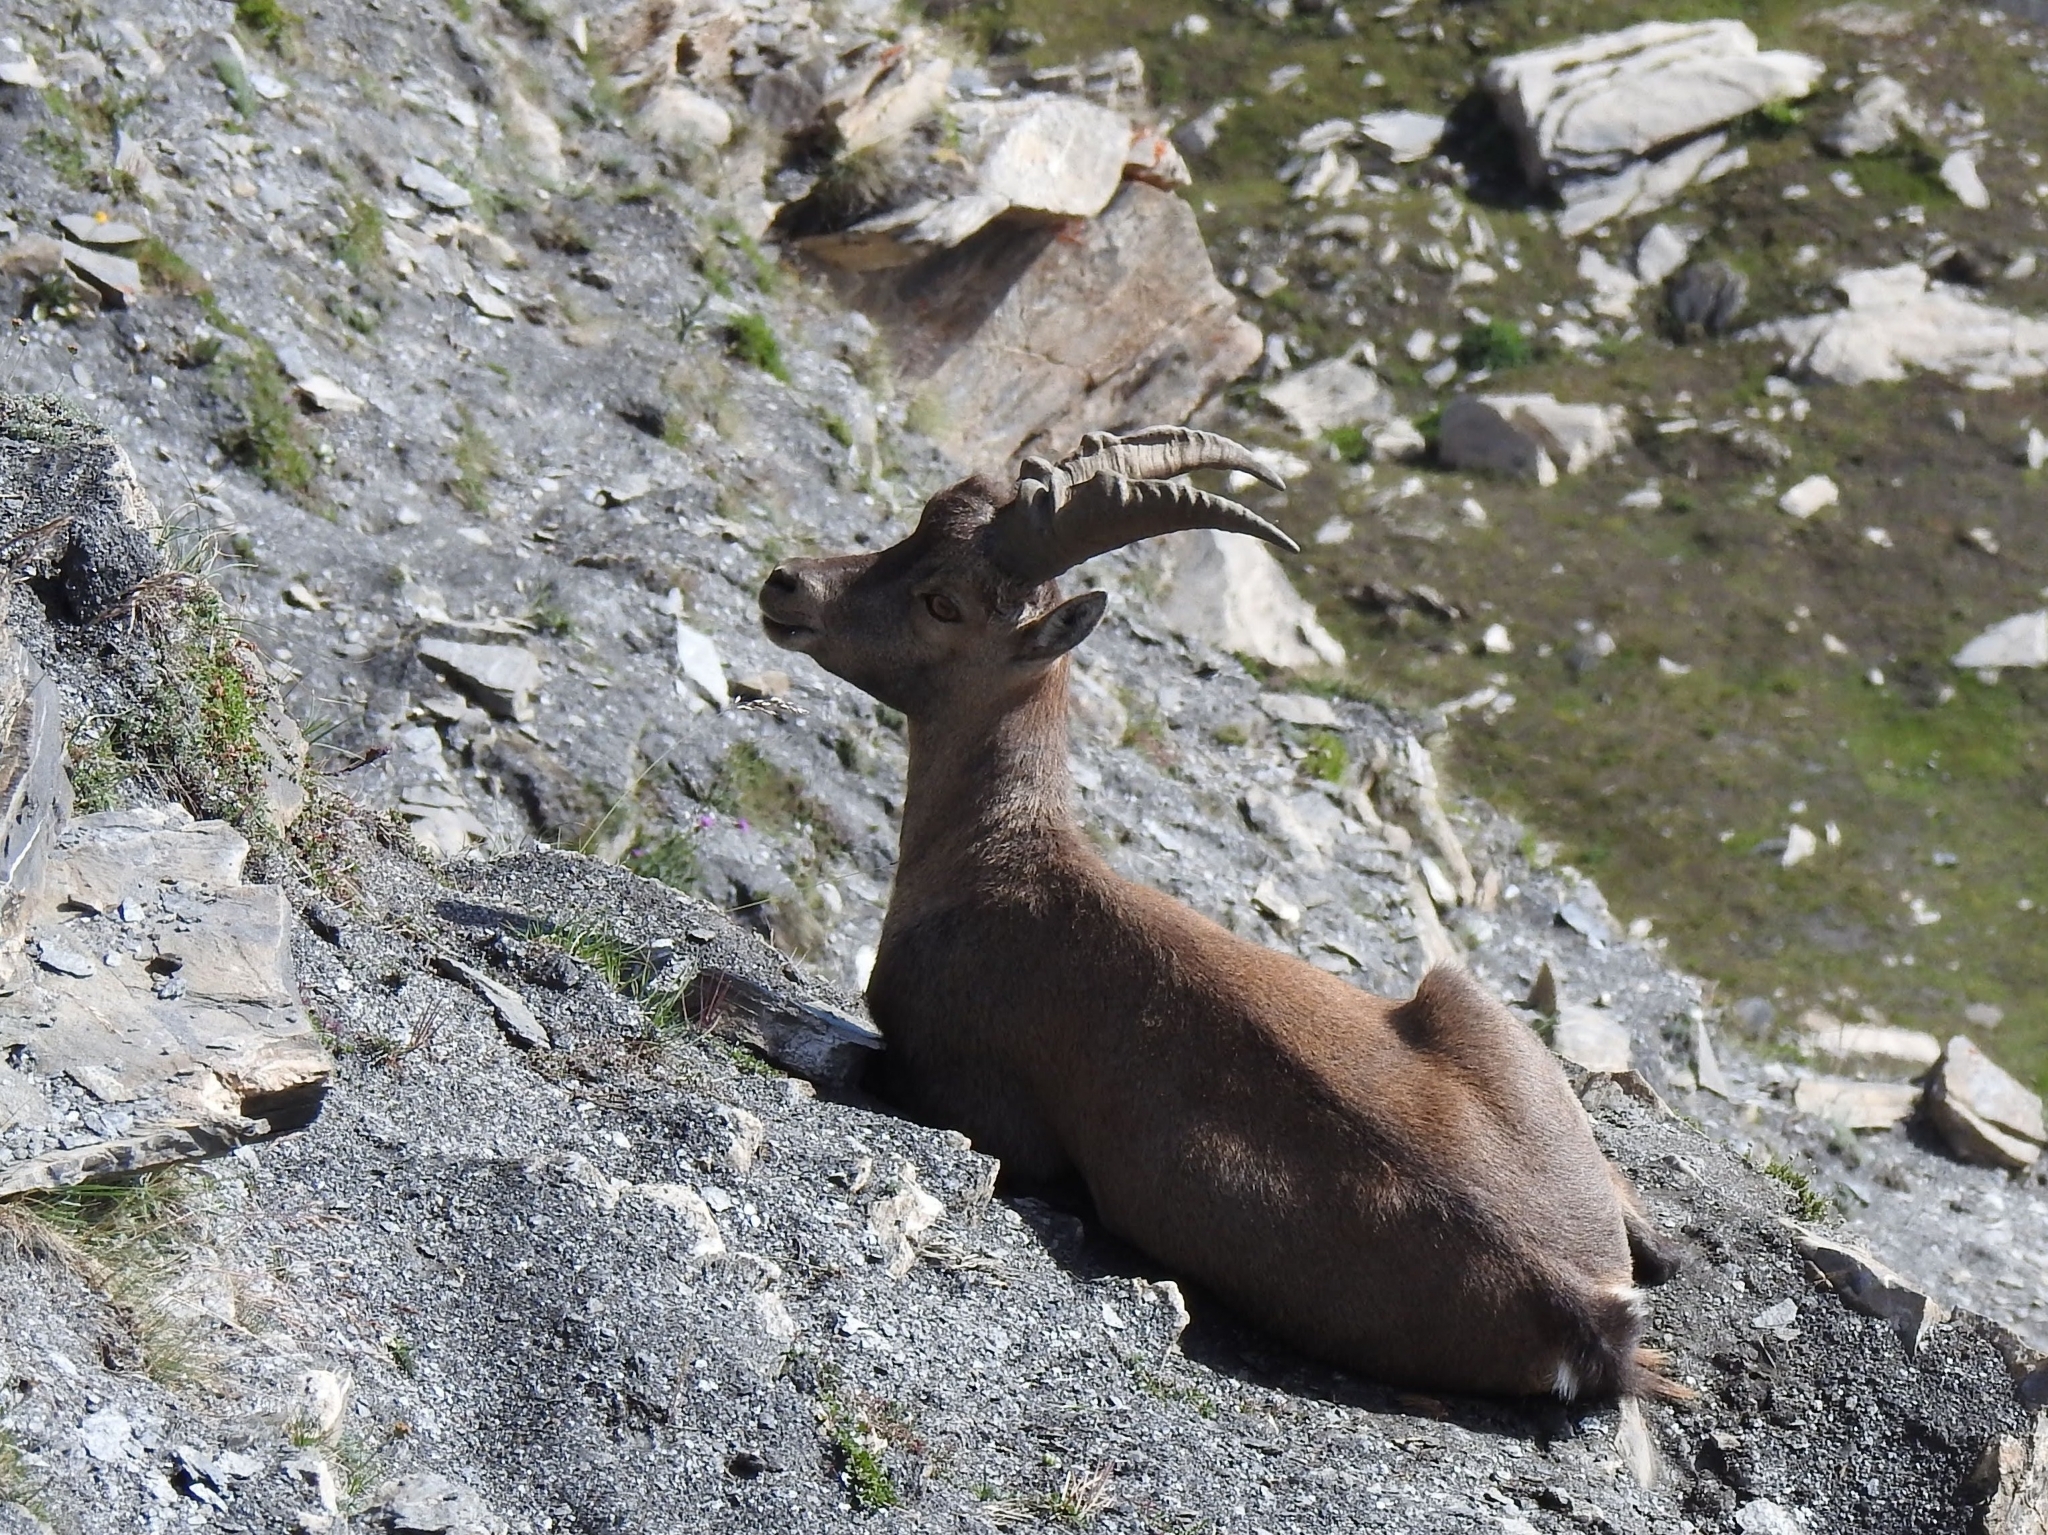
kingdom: Animalia
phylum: Chordata
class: Mammalia
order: Artiodactyla
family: Bovidae
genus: Capra
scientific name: Capra ibex
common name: Alpine ibex
